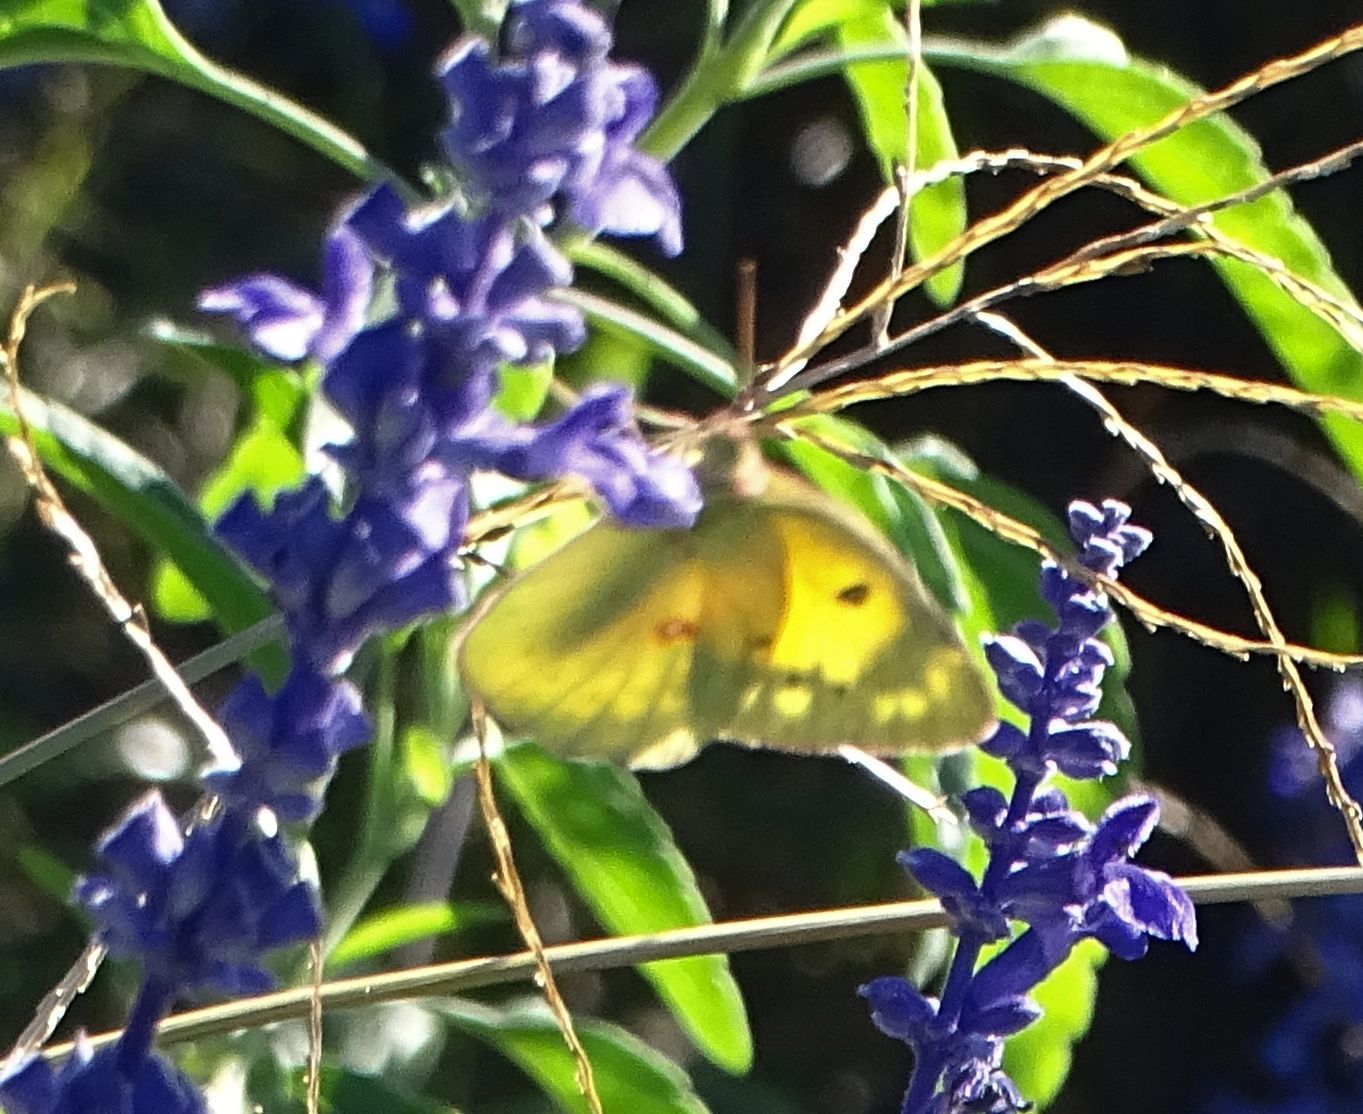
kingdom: Animalia
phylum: Arthropoda
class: Insecta
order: Lepidoptera
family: Pieridae
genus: Colias
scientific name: Colias eurytheme
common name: Alfalfa butterfly
